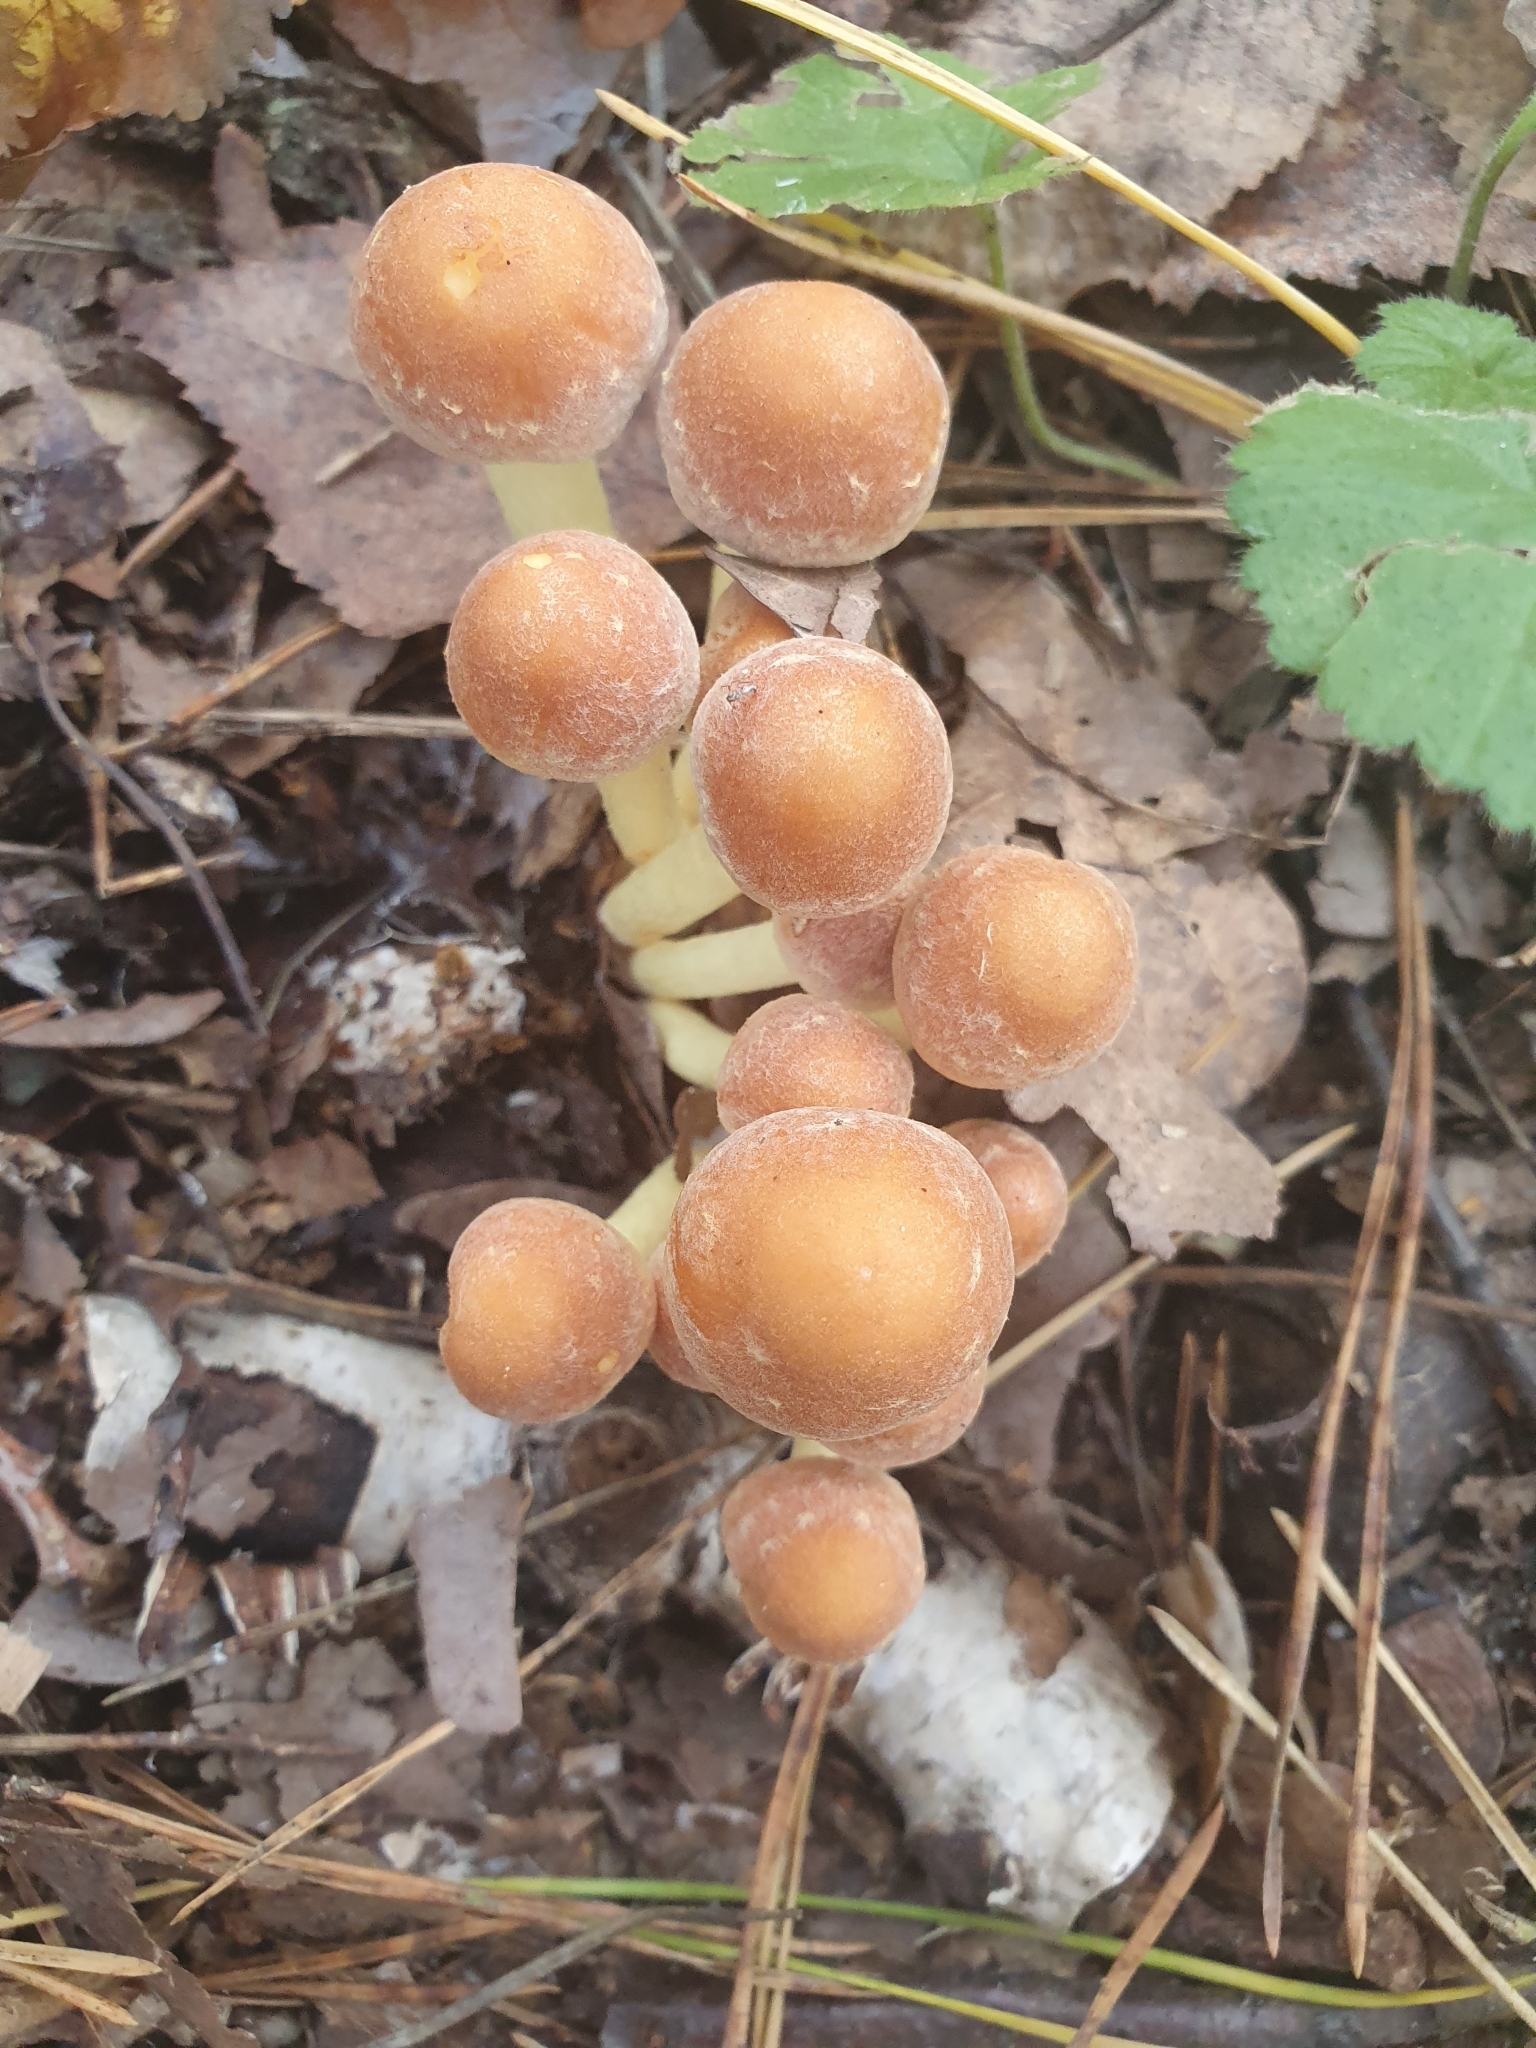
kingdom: Fungi
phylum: Basidiomycota
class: Agaricomycetes
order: Agaricales
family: Strophariaceae
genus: Hypholoma
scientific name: Hypholoma fasciculare
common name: Sulphur tuft
